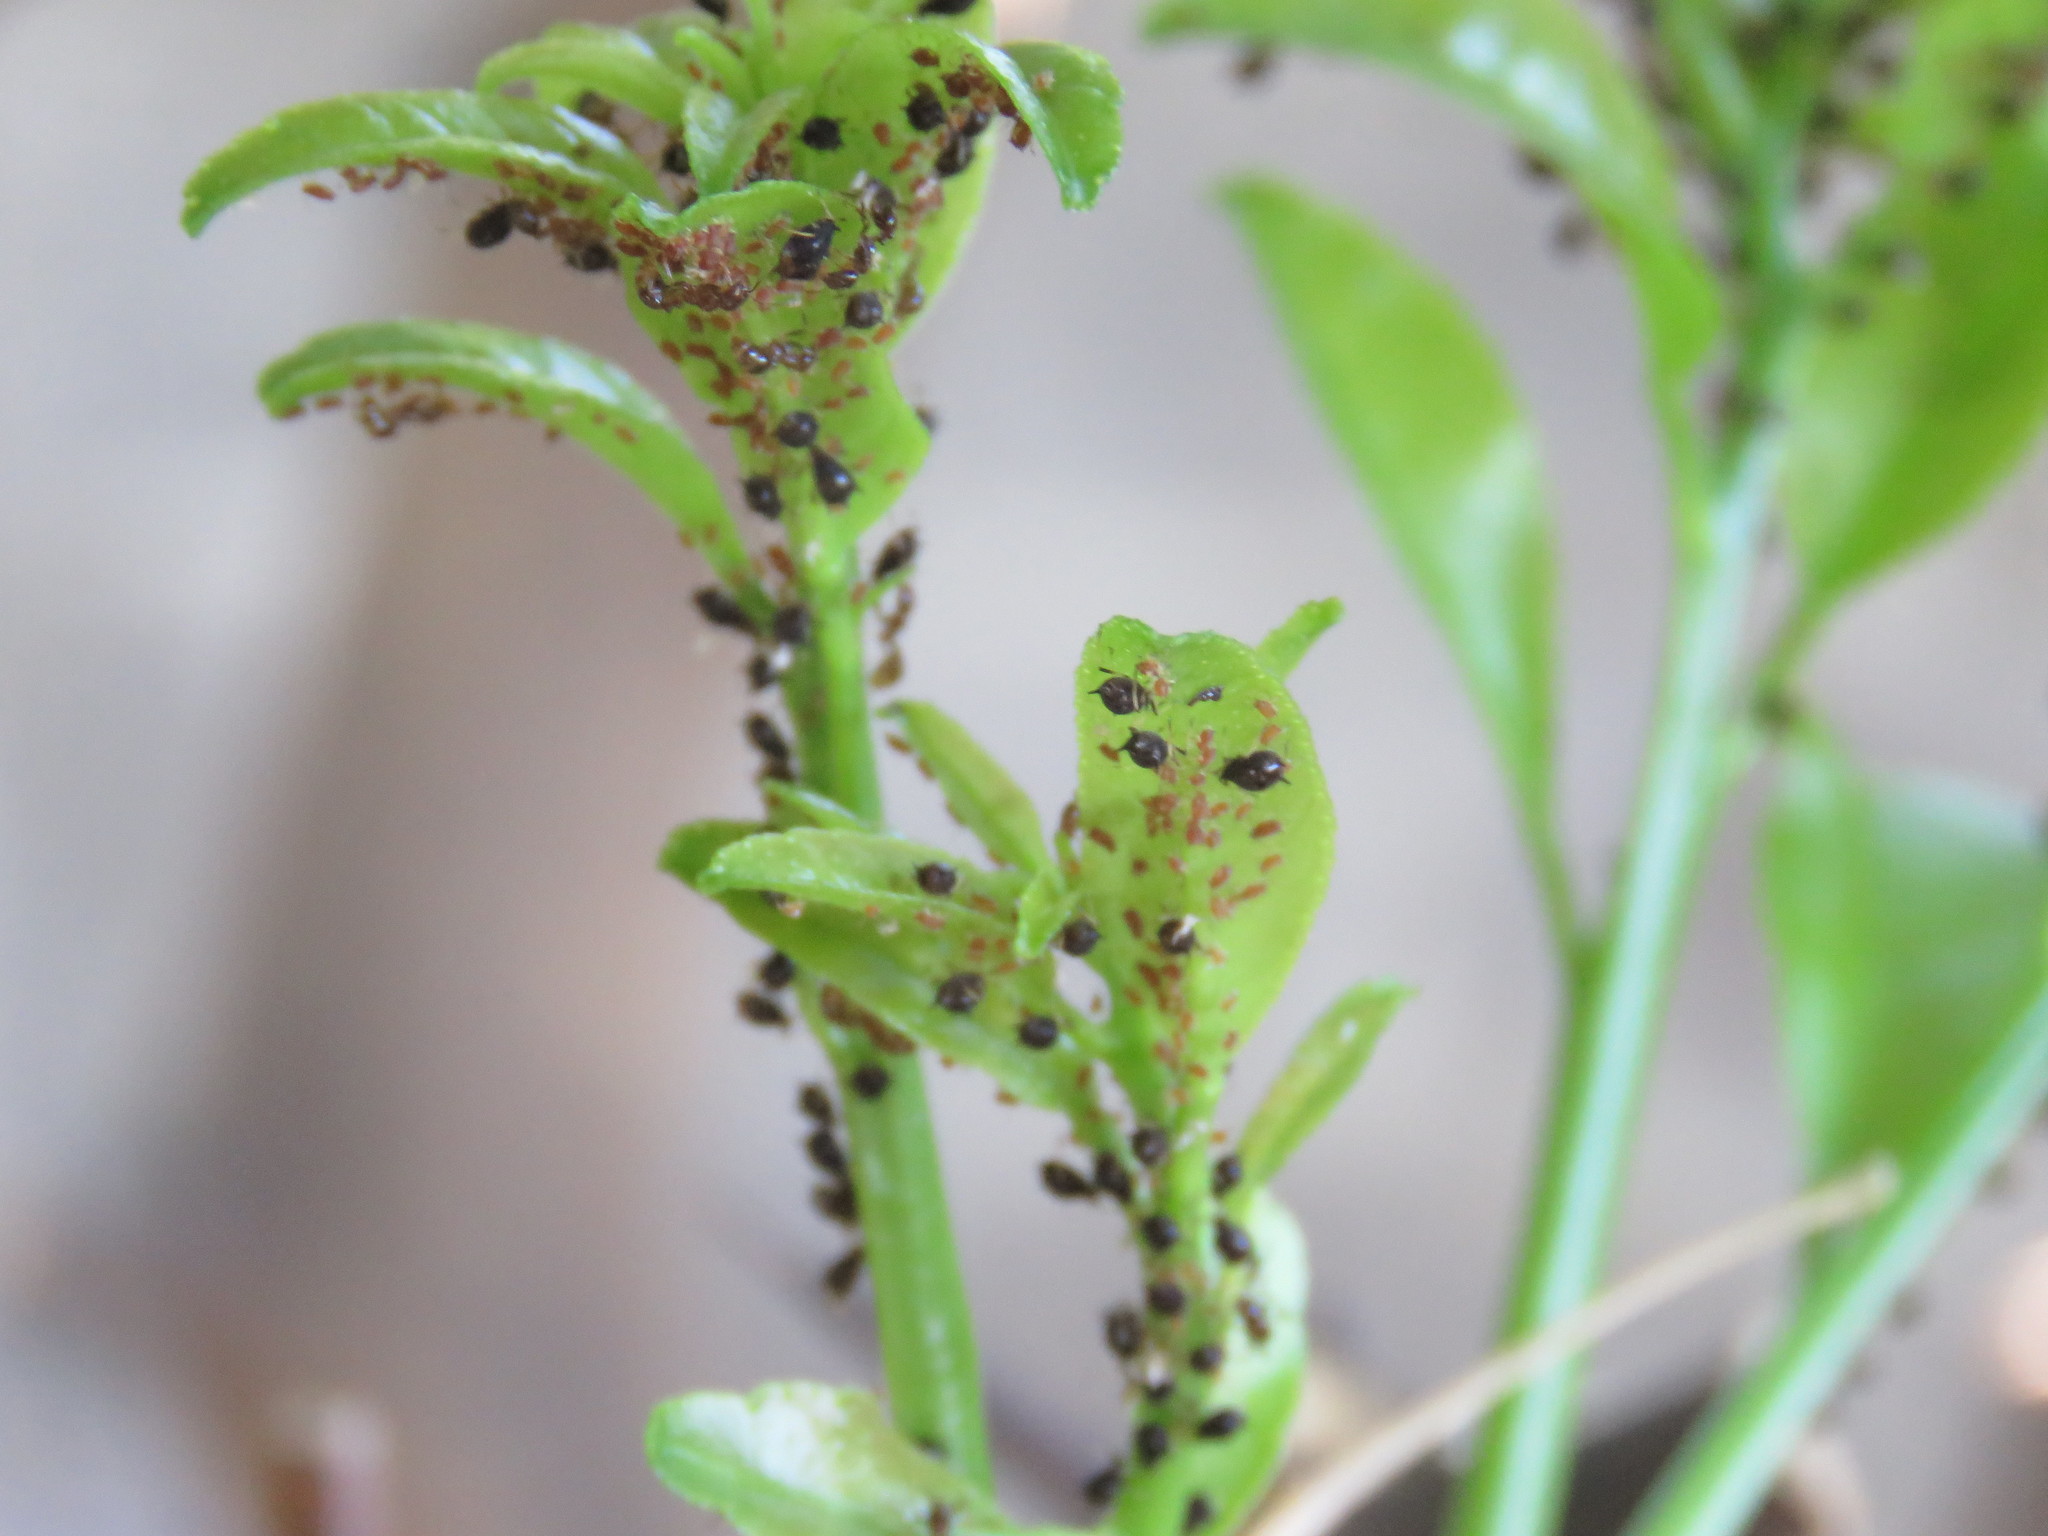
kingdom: Animalia
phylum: Arthropoda
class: Insecta
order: Hymenoptera
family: Formicidae
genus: Solenopsis
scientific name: Solenopsis geminata
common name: Tropical fire ant
